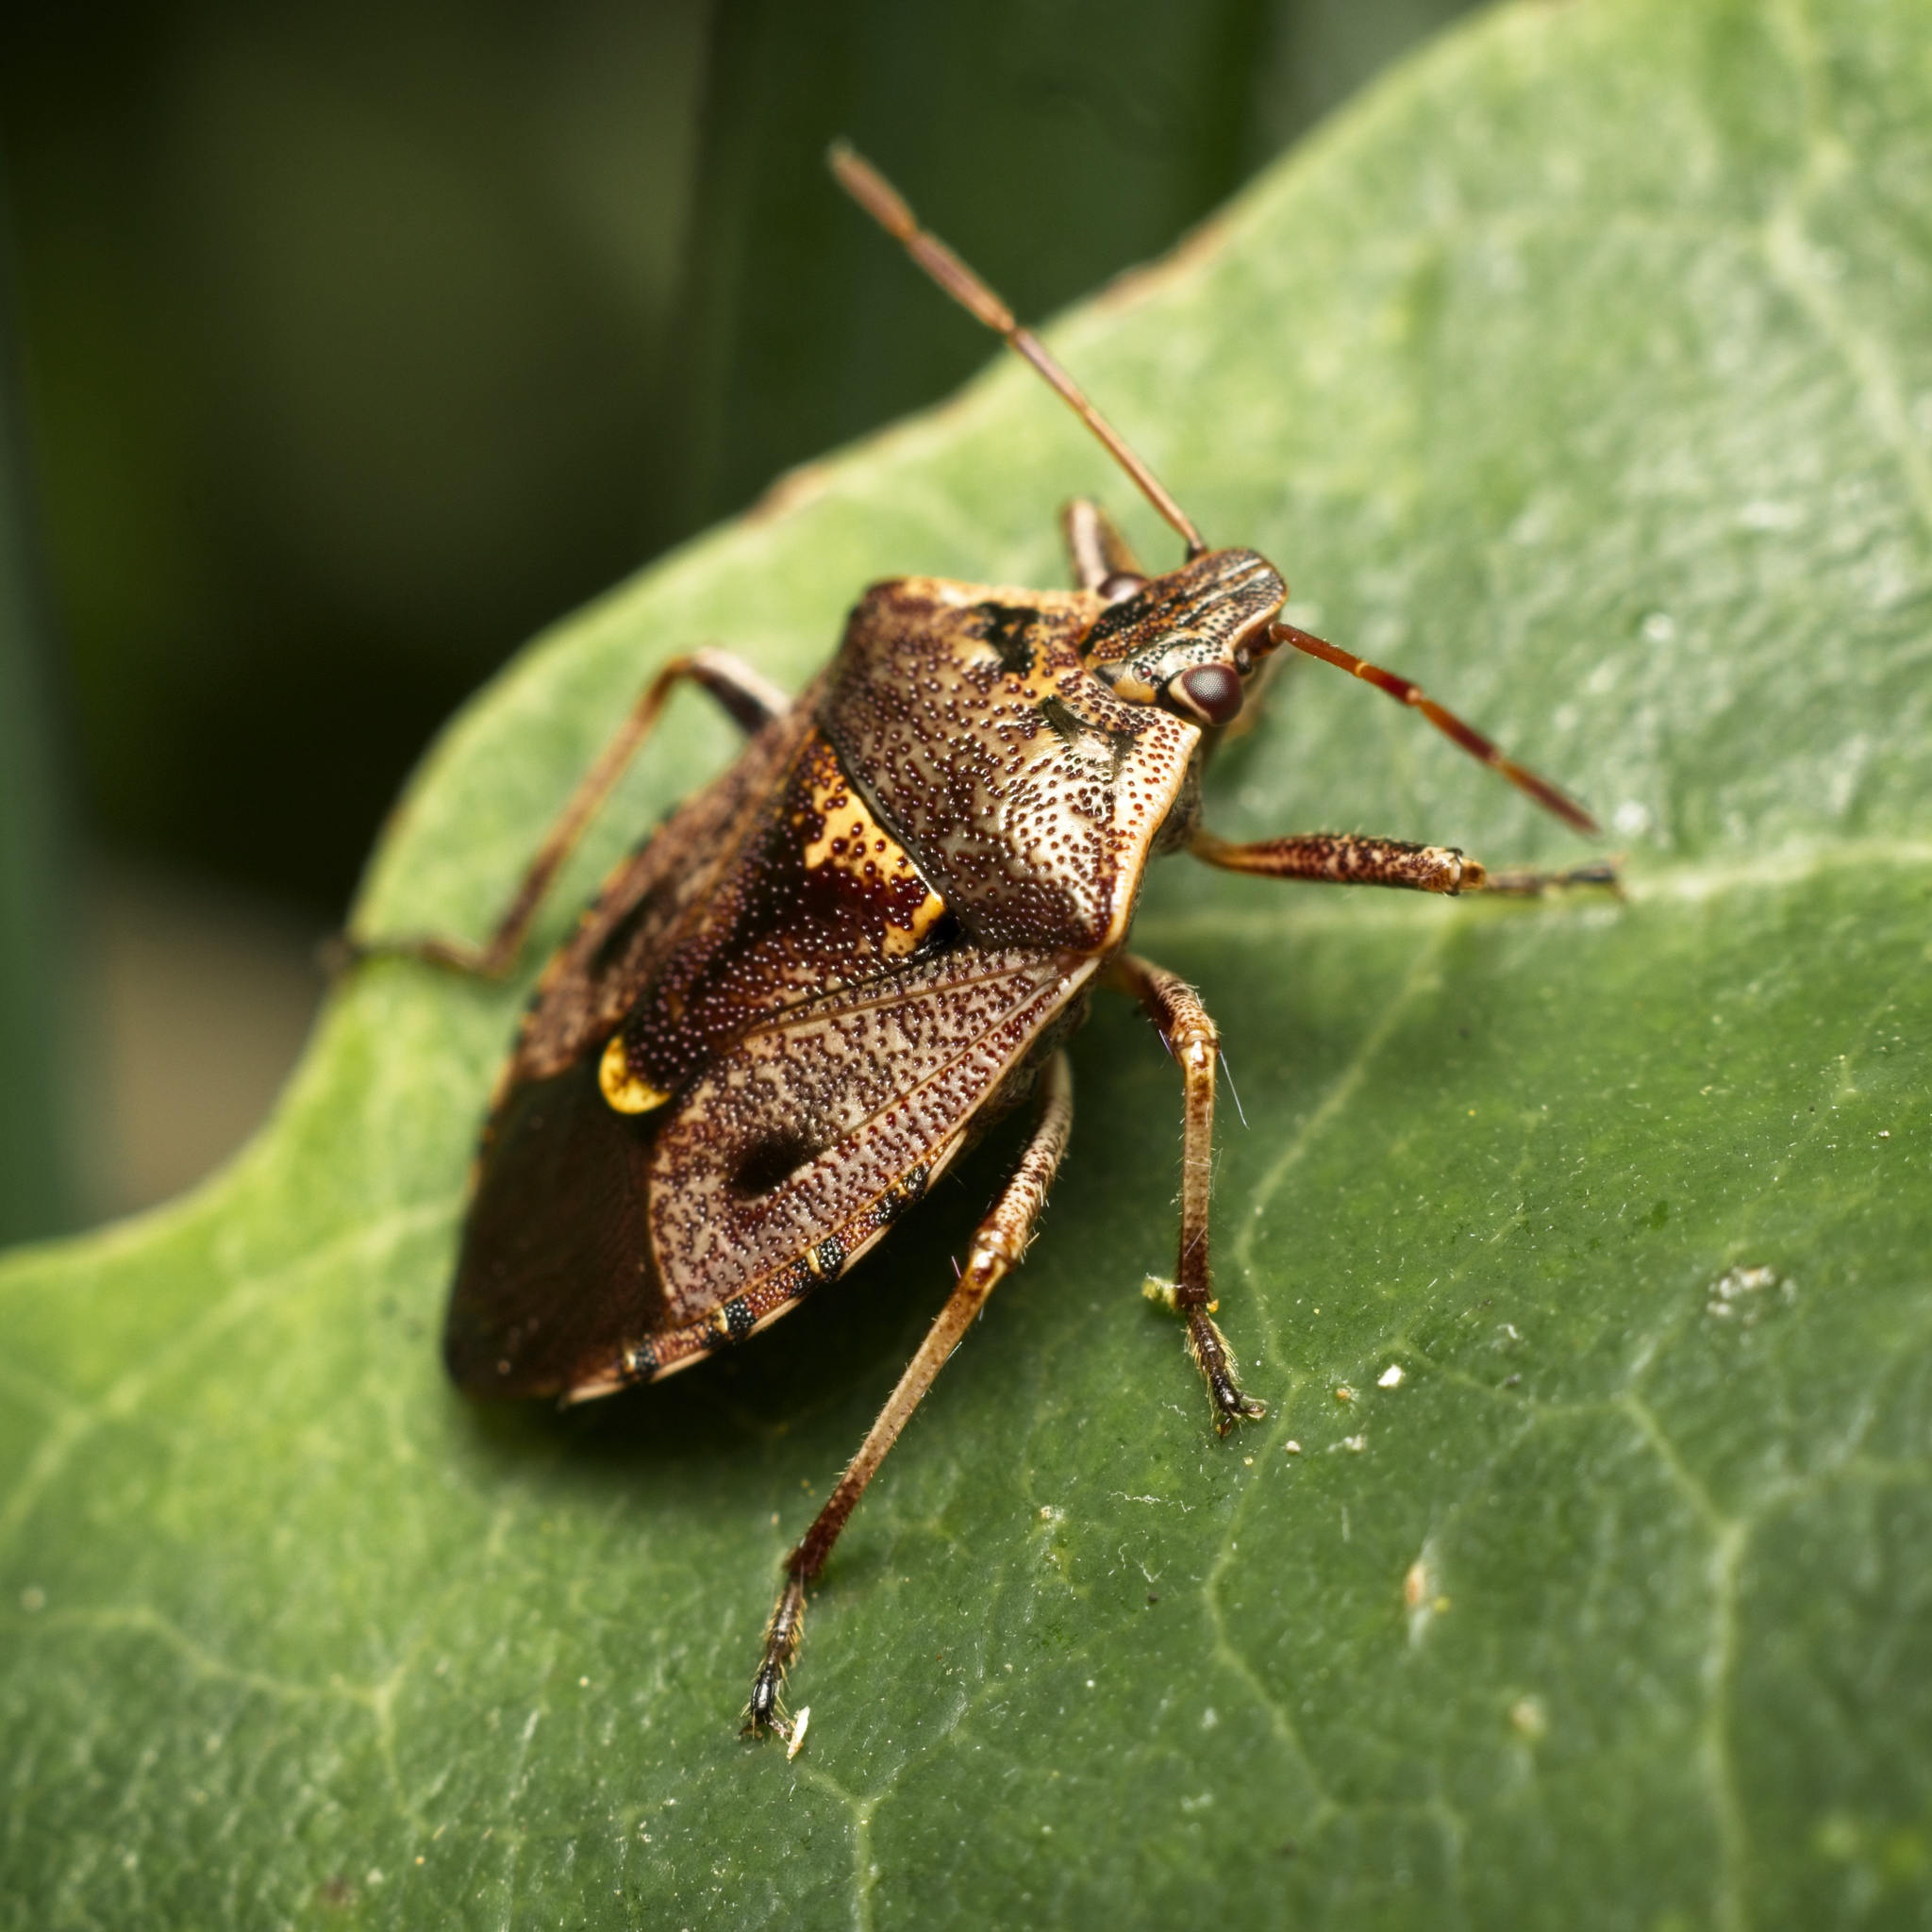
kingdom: Animalia
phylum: Arthropoda
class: Insecta
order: Hemiptera
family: Pentatomidae
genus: Cermatulus
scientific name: Cermatulus nasalis
